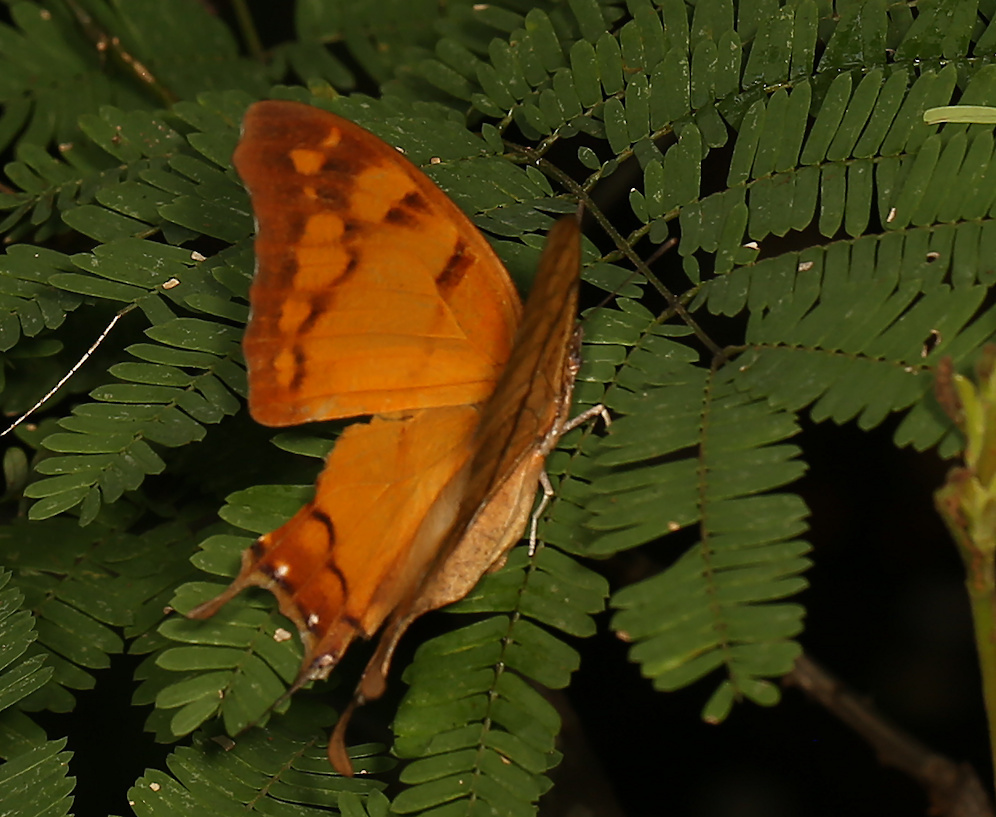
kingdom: Animalia
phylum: Arthropoda
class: Insecta
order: Lepidoptera
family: Nymphalidae
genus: Polyura
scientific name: Polyura
